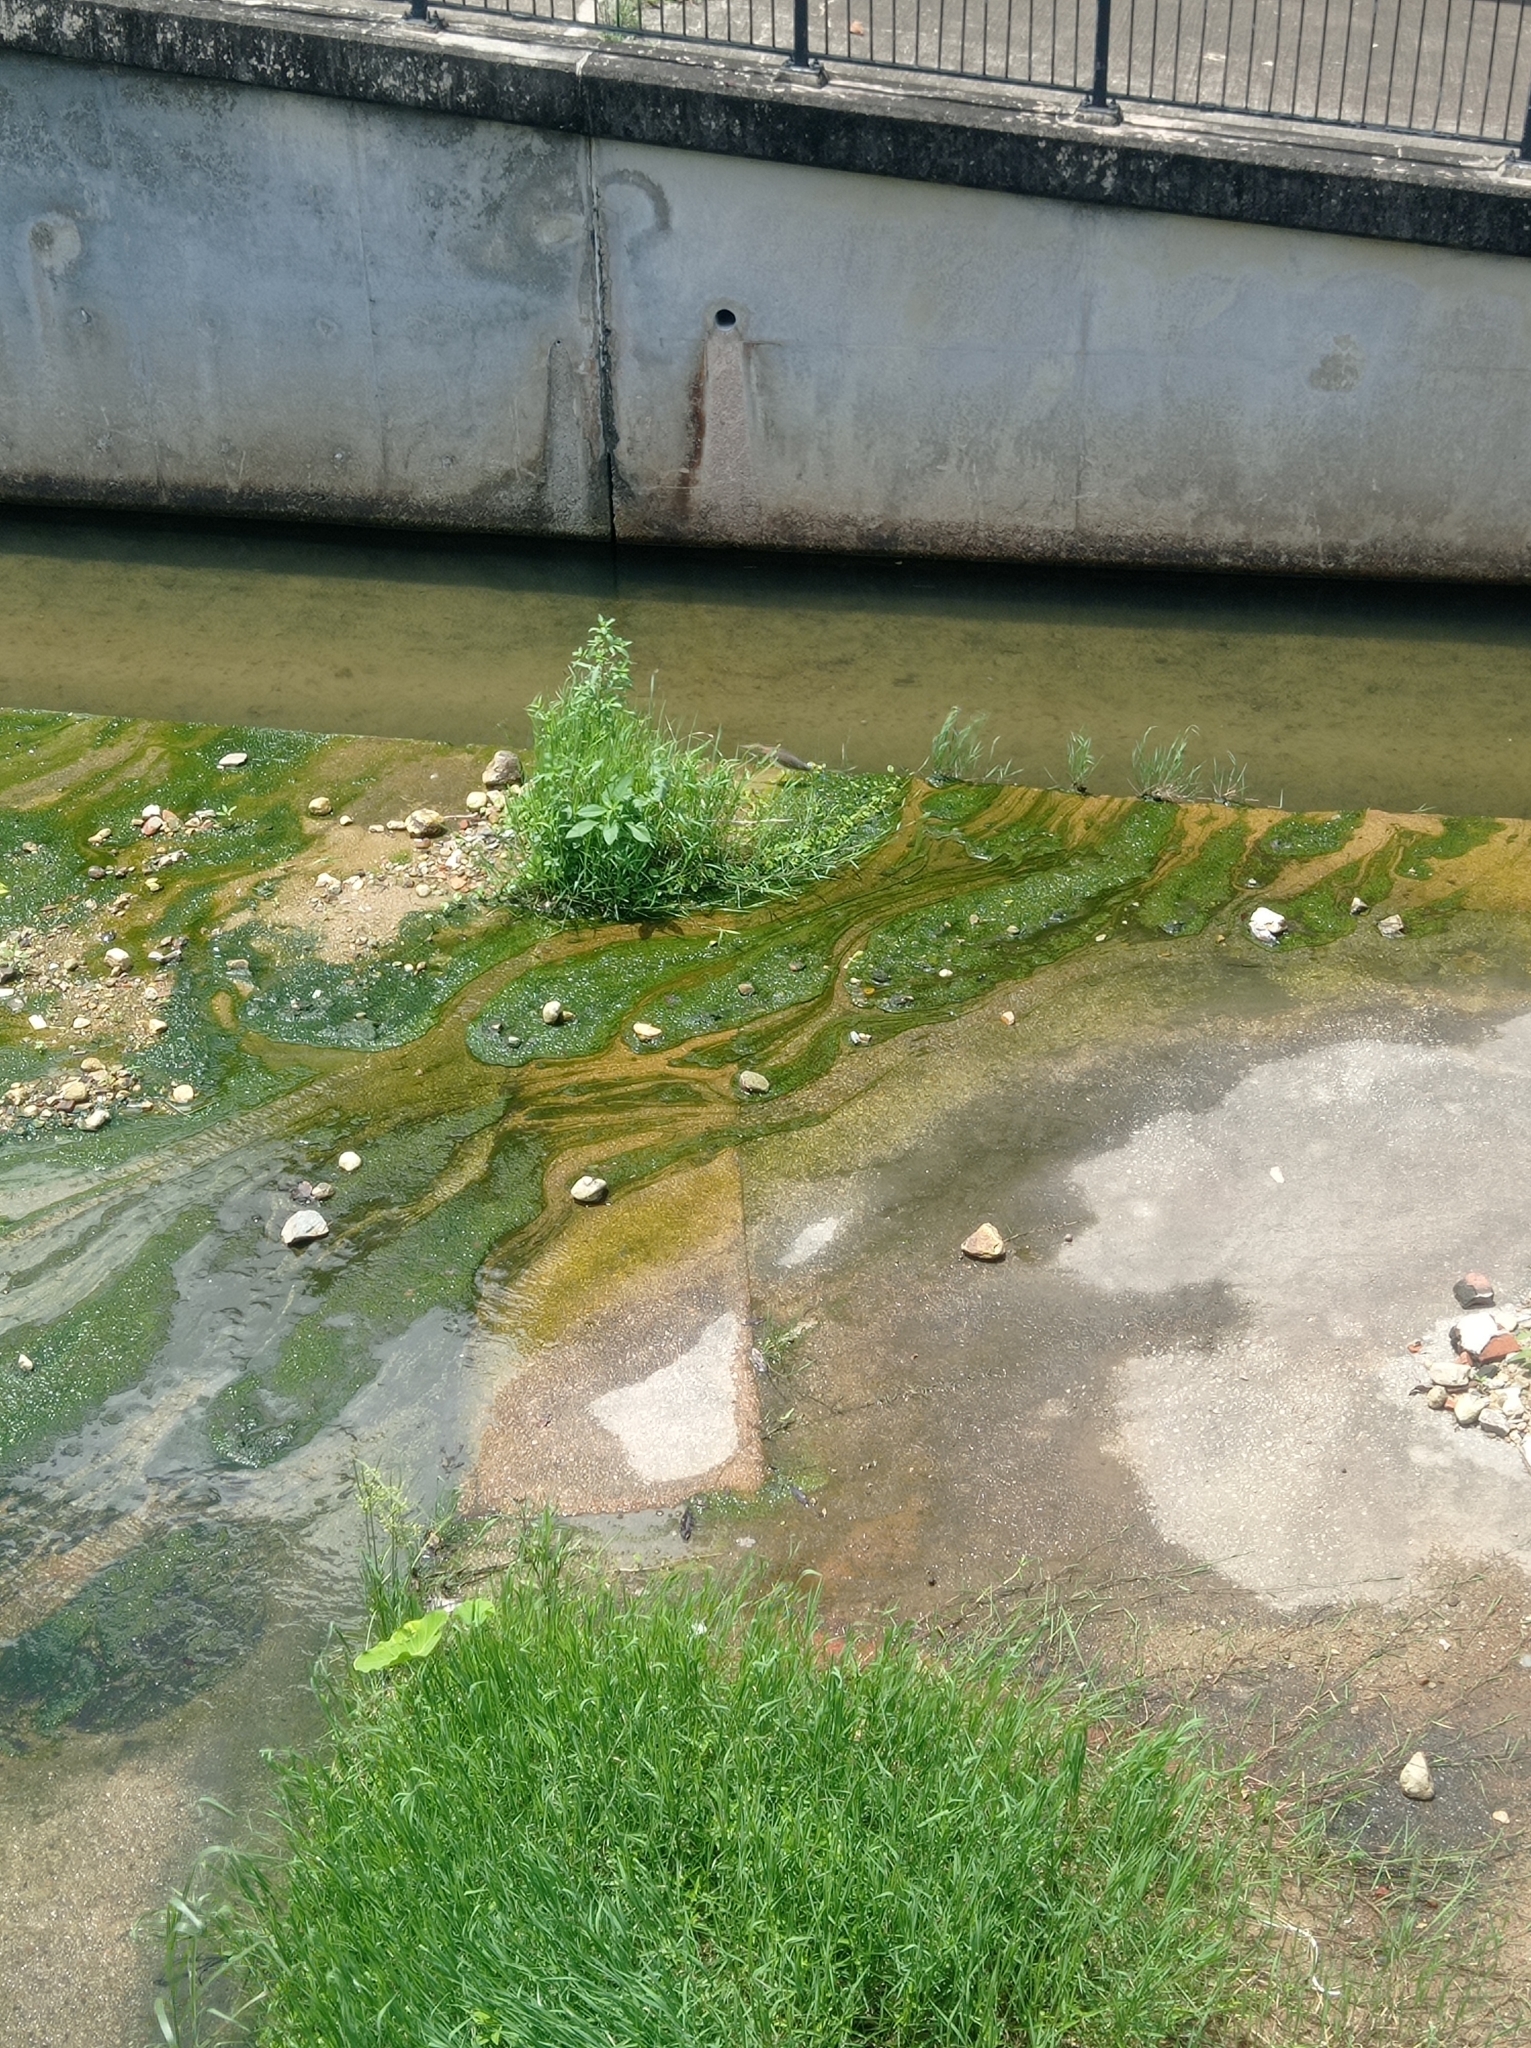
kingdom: Animalia
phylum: Chordata
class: Aves
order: Pelecaniformes
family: Ardeidae
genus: Ardeola
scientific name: Ardeola bacchus
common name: Chinese pond heron
